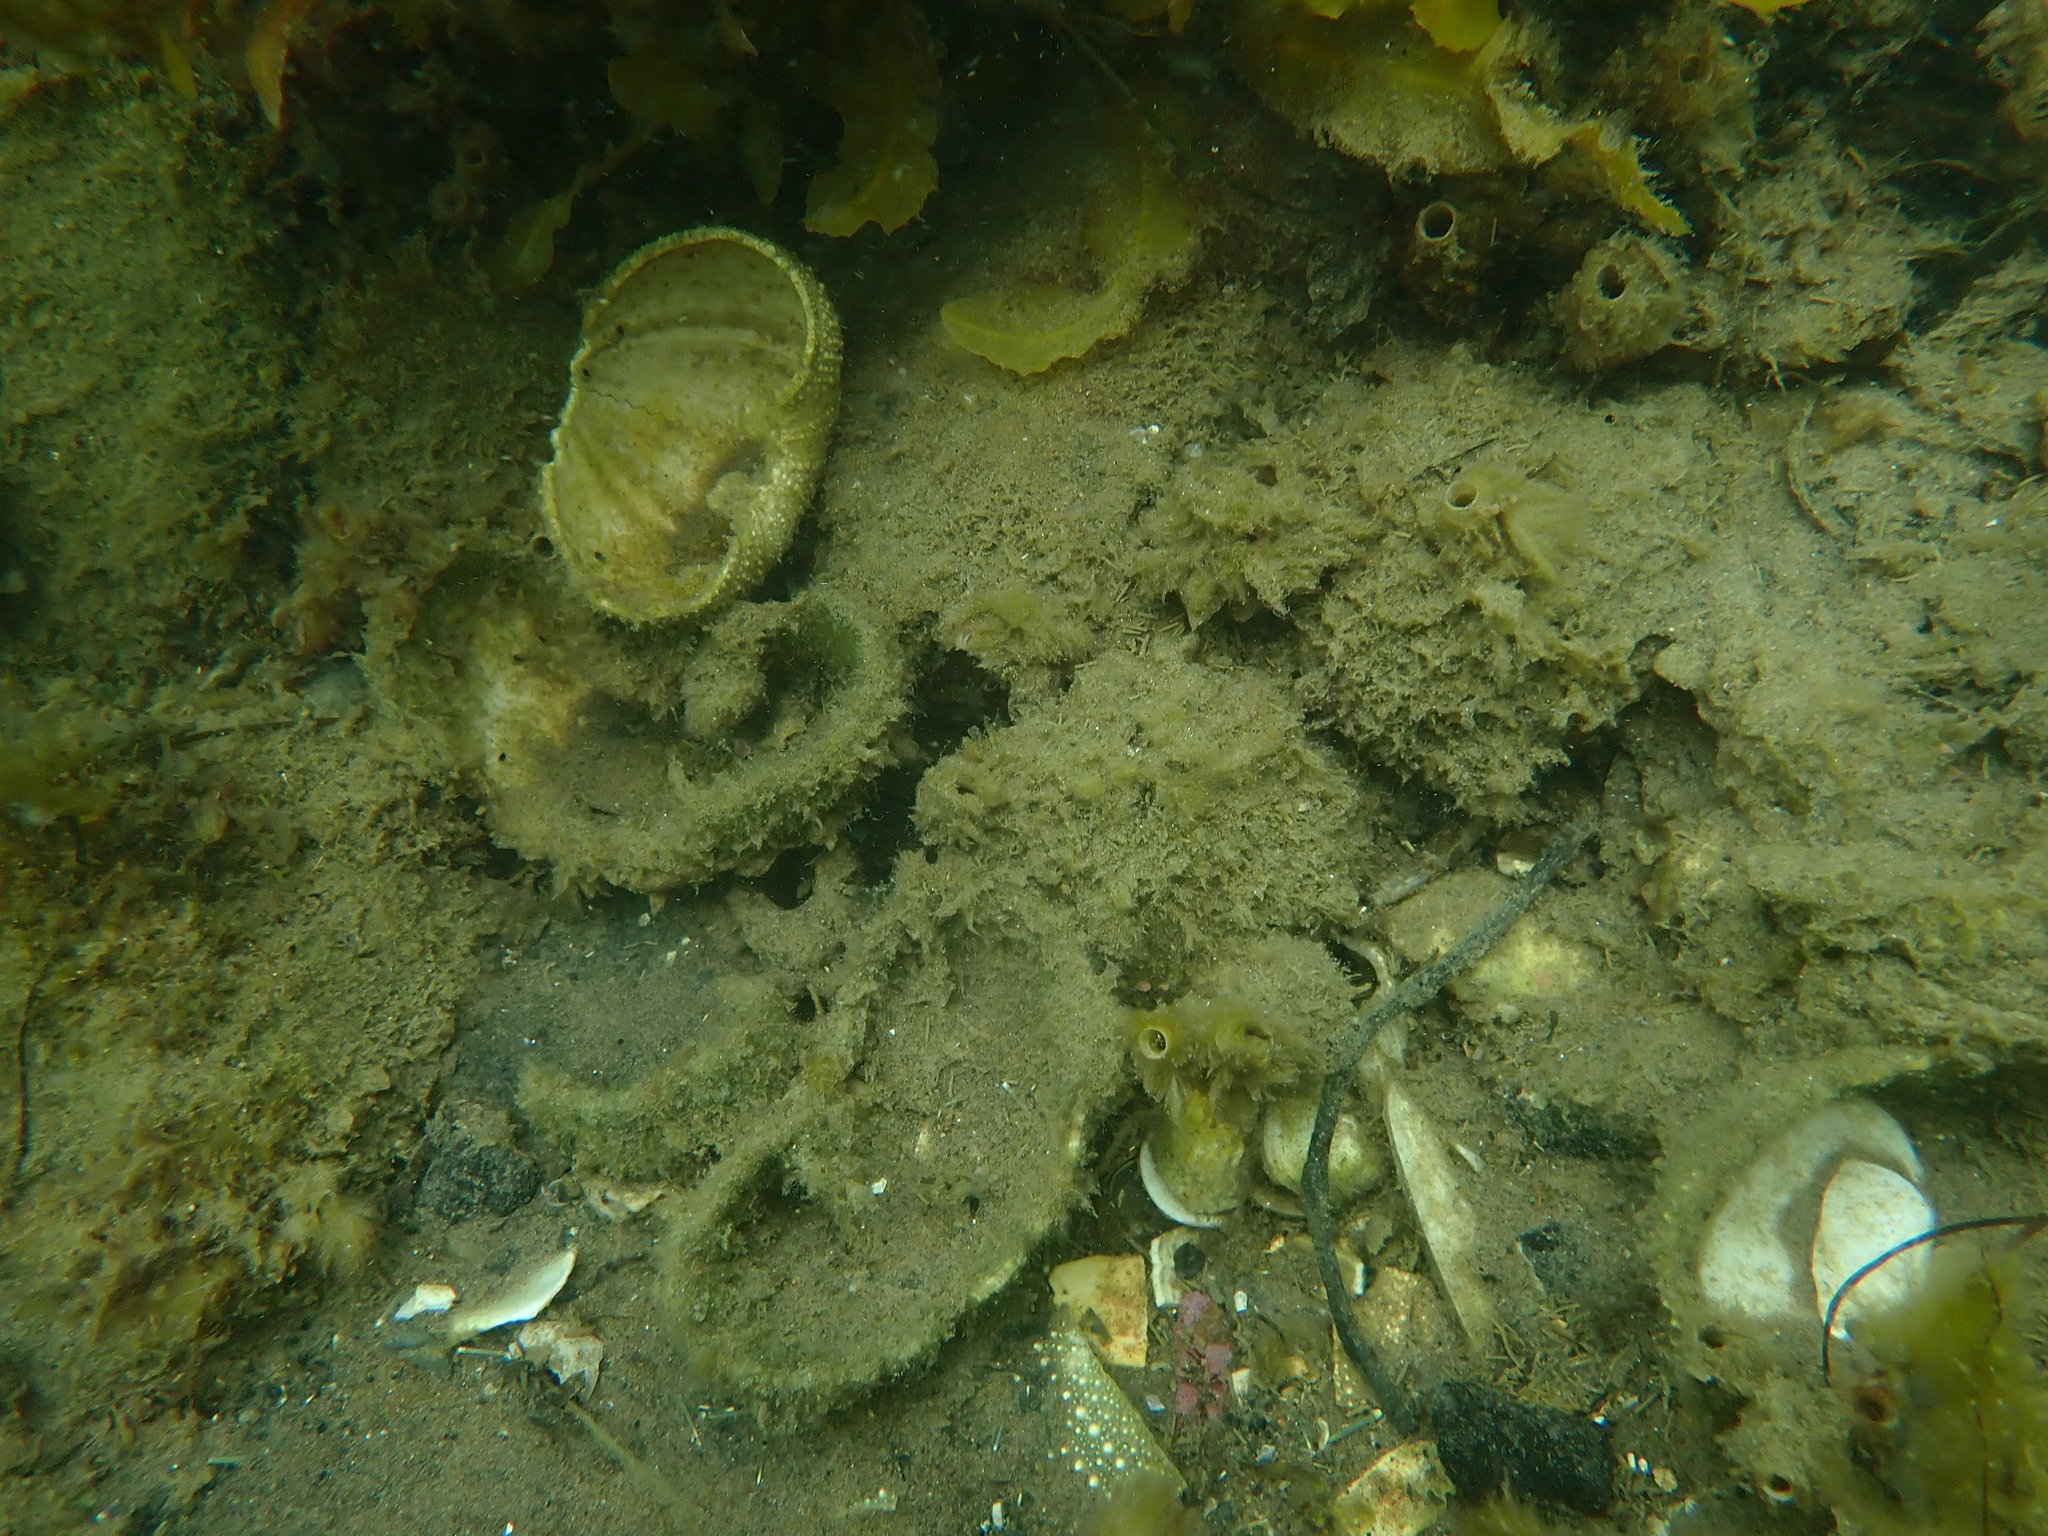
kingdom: Animalia
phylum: Echinodermata
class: Echinoidea
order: Camarodonta
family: Echinometridae
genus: Evechinus
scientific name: Evechinus chloroticus
